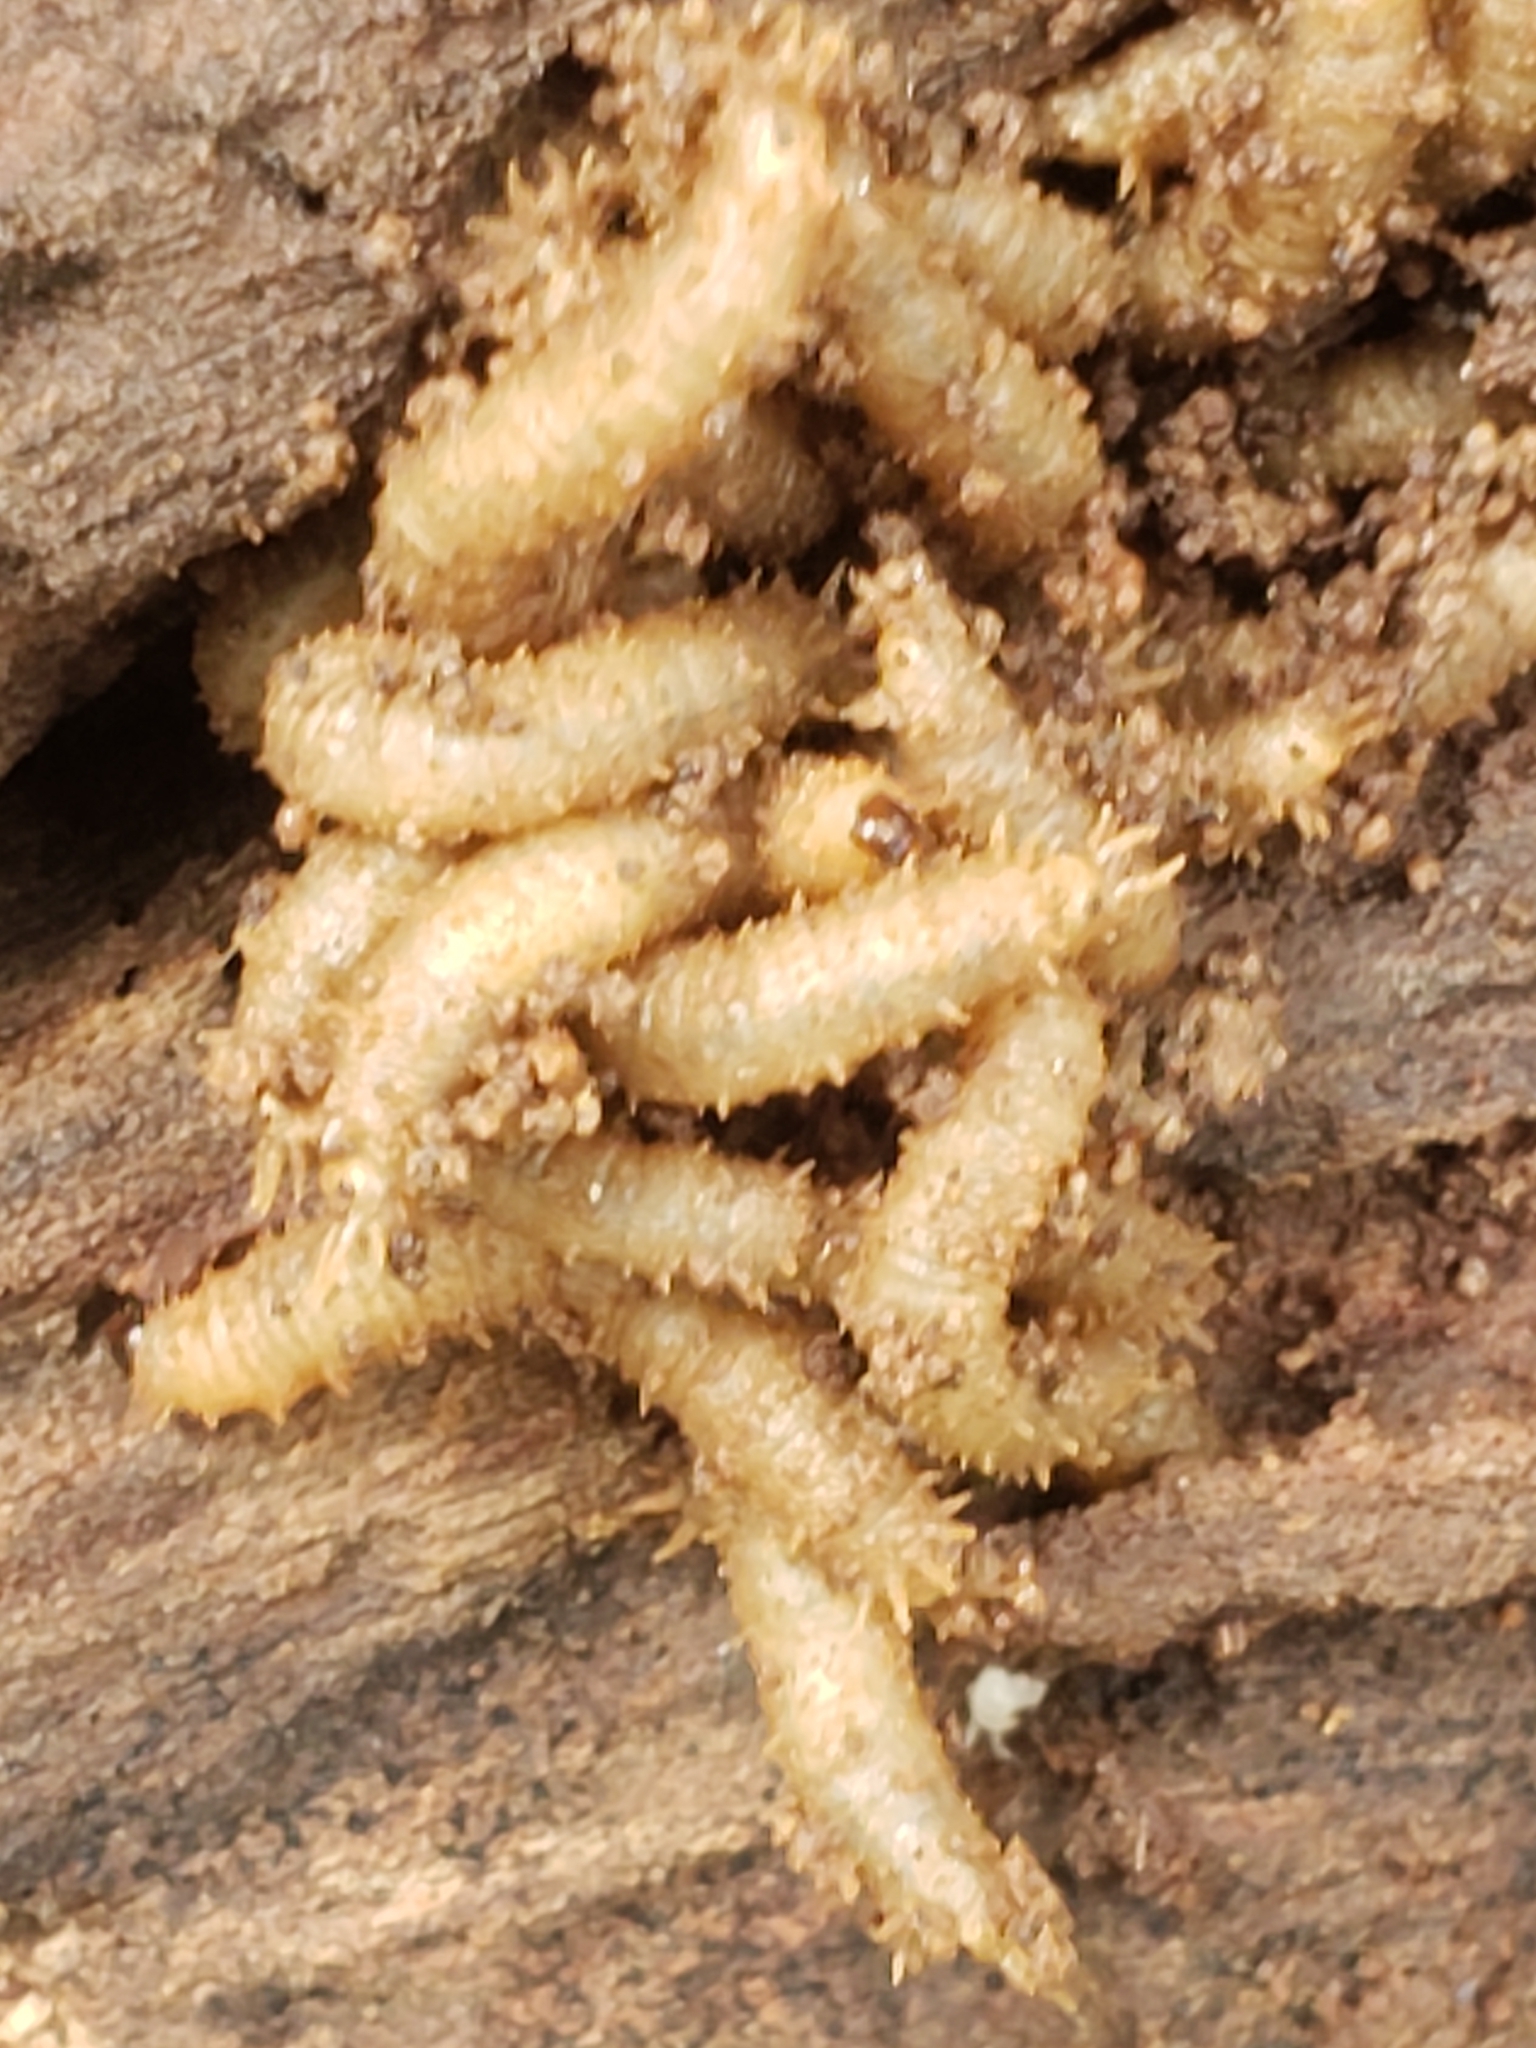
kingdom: Animalia
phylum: Arthropoda
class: Insecta
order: Diptera
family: Bibionidae
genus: Bibio
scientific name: Bibio
